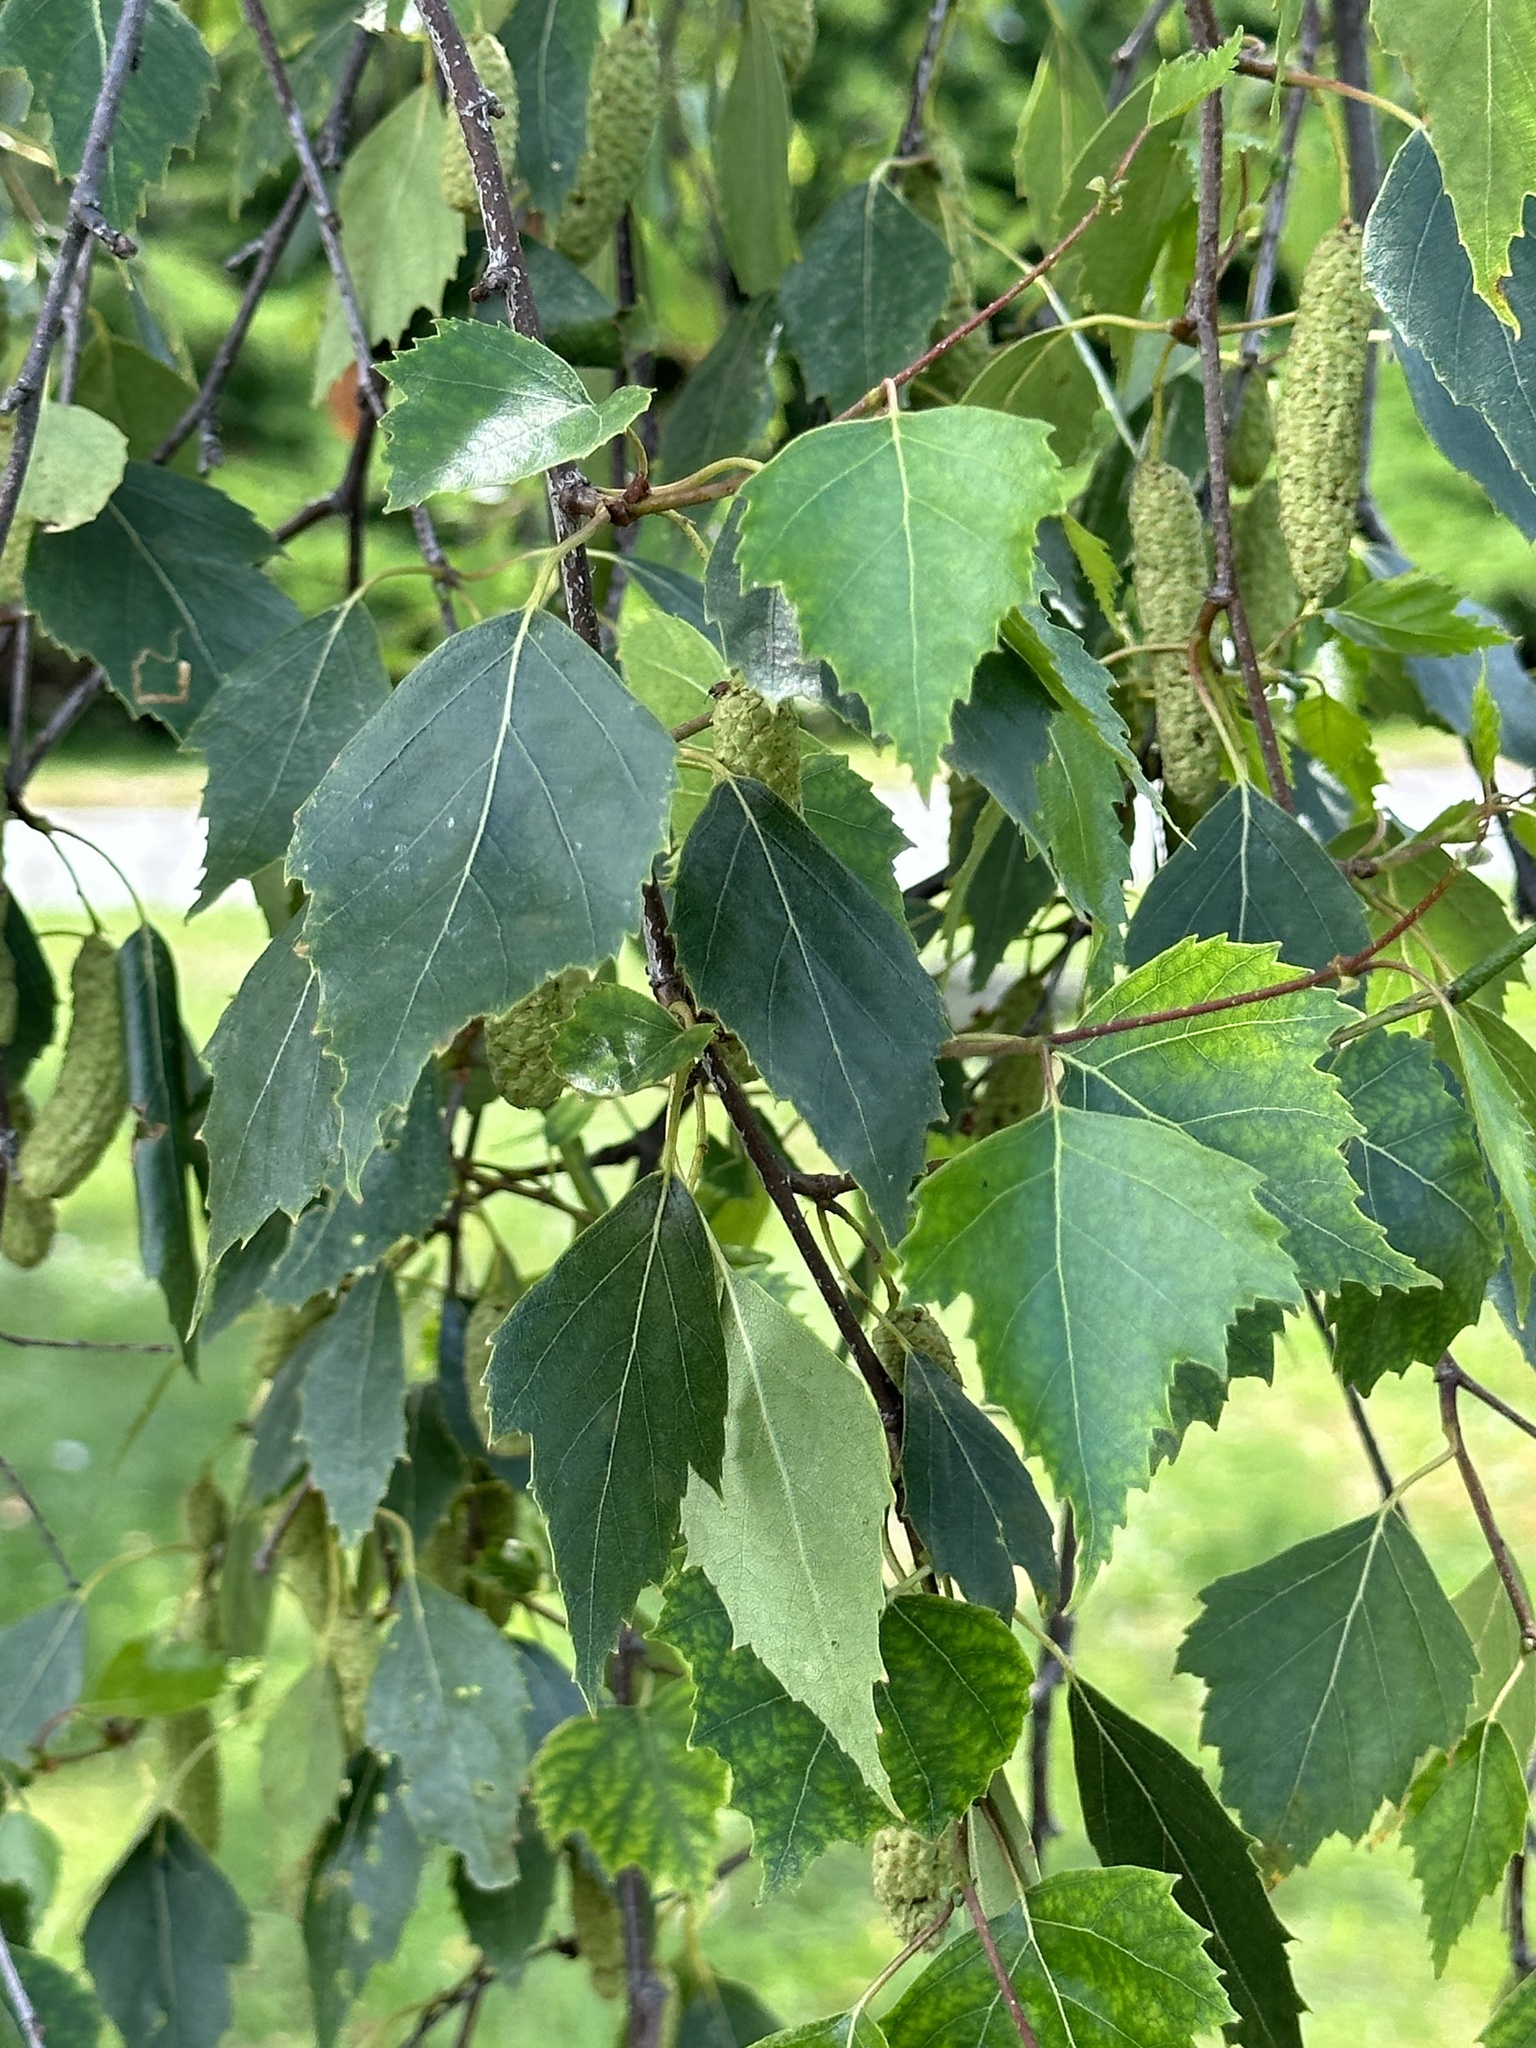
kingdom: Plantae
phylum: Tracheophyta
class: Magnoliopsida
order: Fagales
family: Betulaceae
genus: Betula
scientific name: Betula pendula
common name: Silver birch
